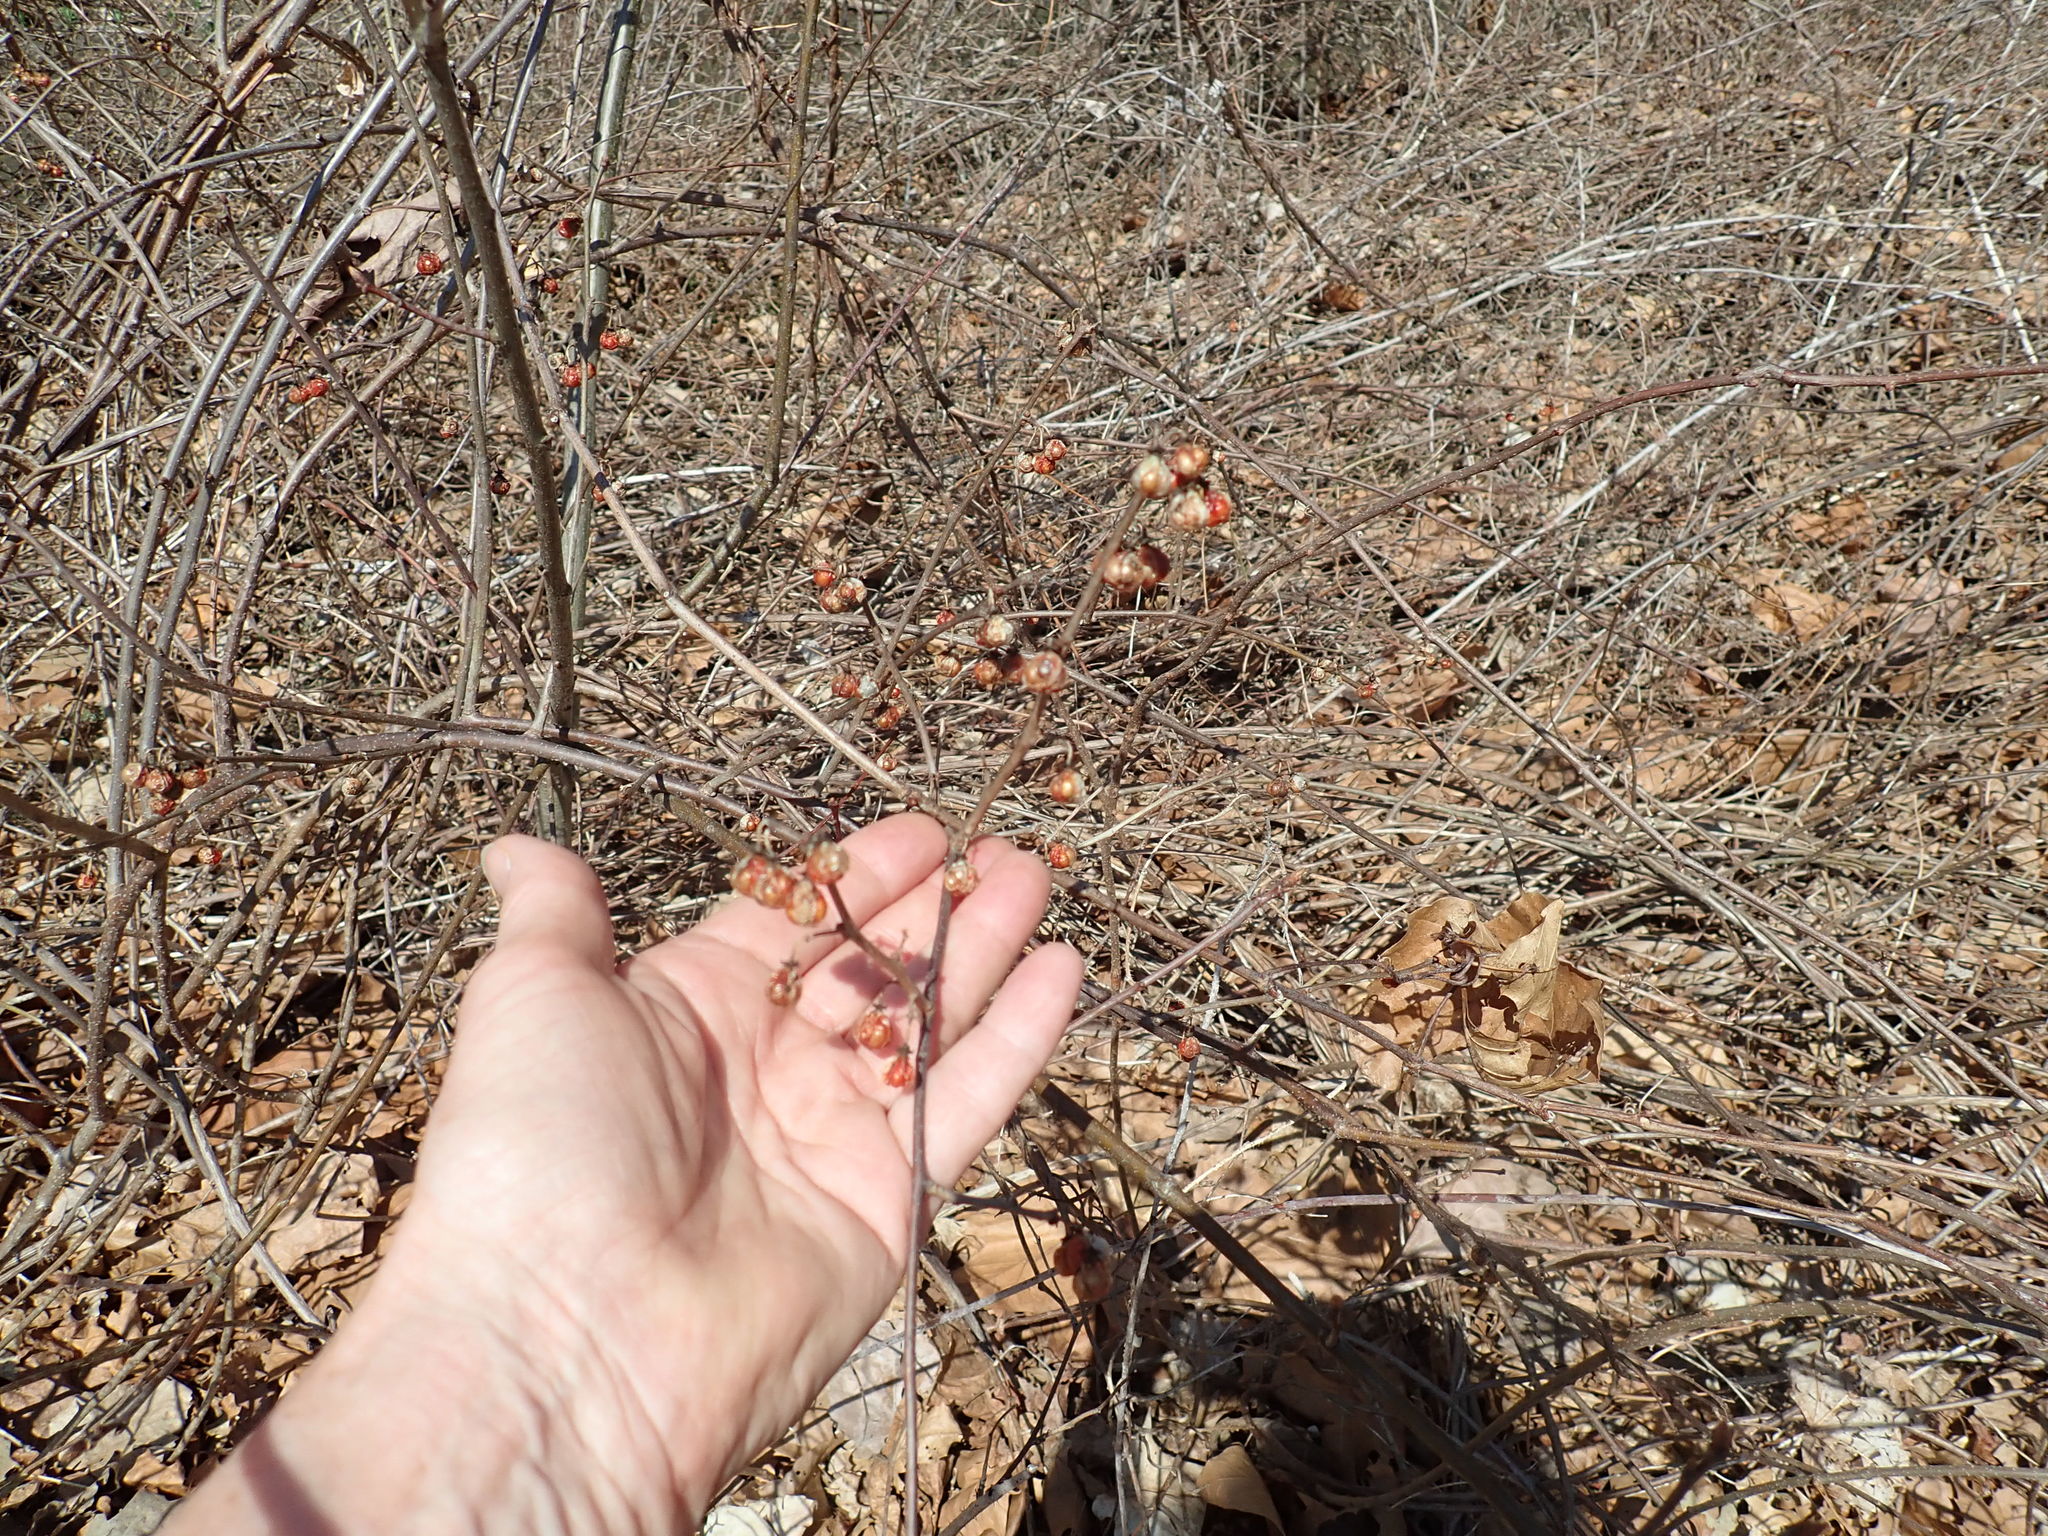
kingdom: Plantae
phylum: Tracheophyta
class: Magnoliopsida
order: Celastrales
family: Celastraceae
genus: Celastrus
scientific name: Celastrus orbiculatus
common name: Oriental bittersweet
